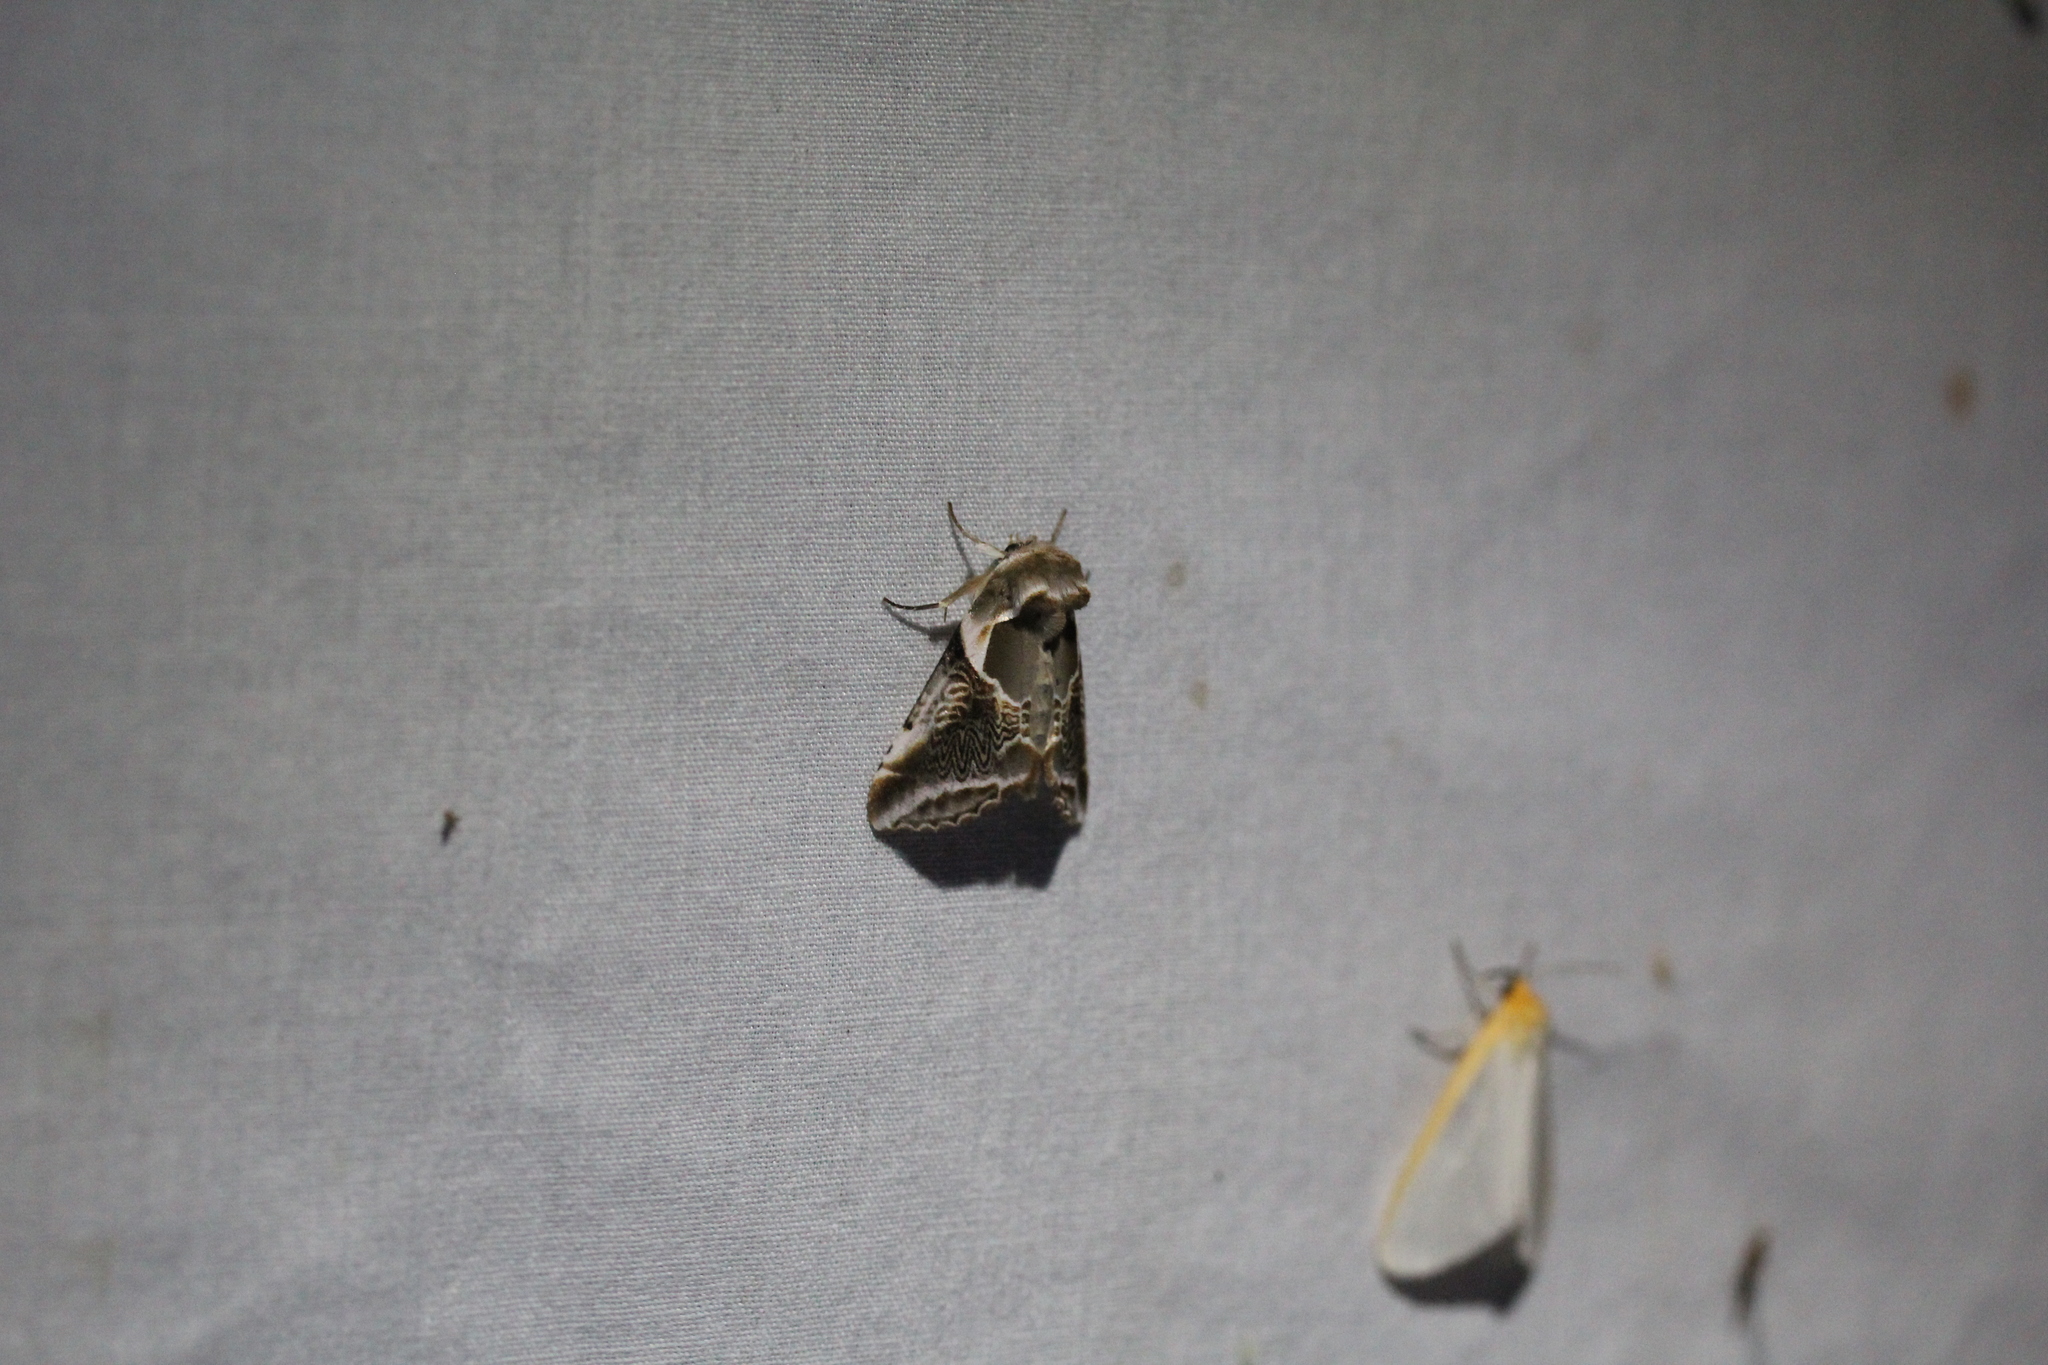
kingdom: Animalia
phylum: Arthropoda
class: Insecta
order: Lepidoptera
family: Drepanidae
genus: Habrosyne
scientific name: Habrosyne scripta
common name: Lettered habrosyne moth
